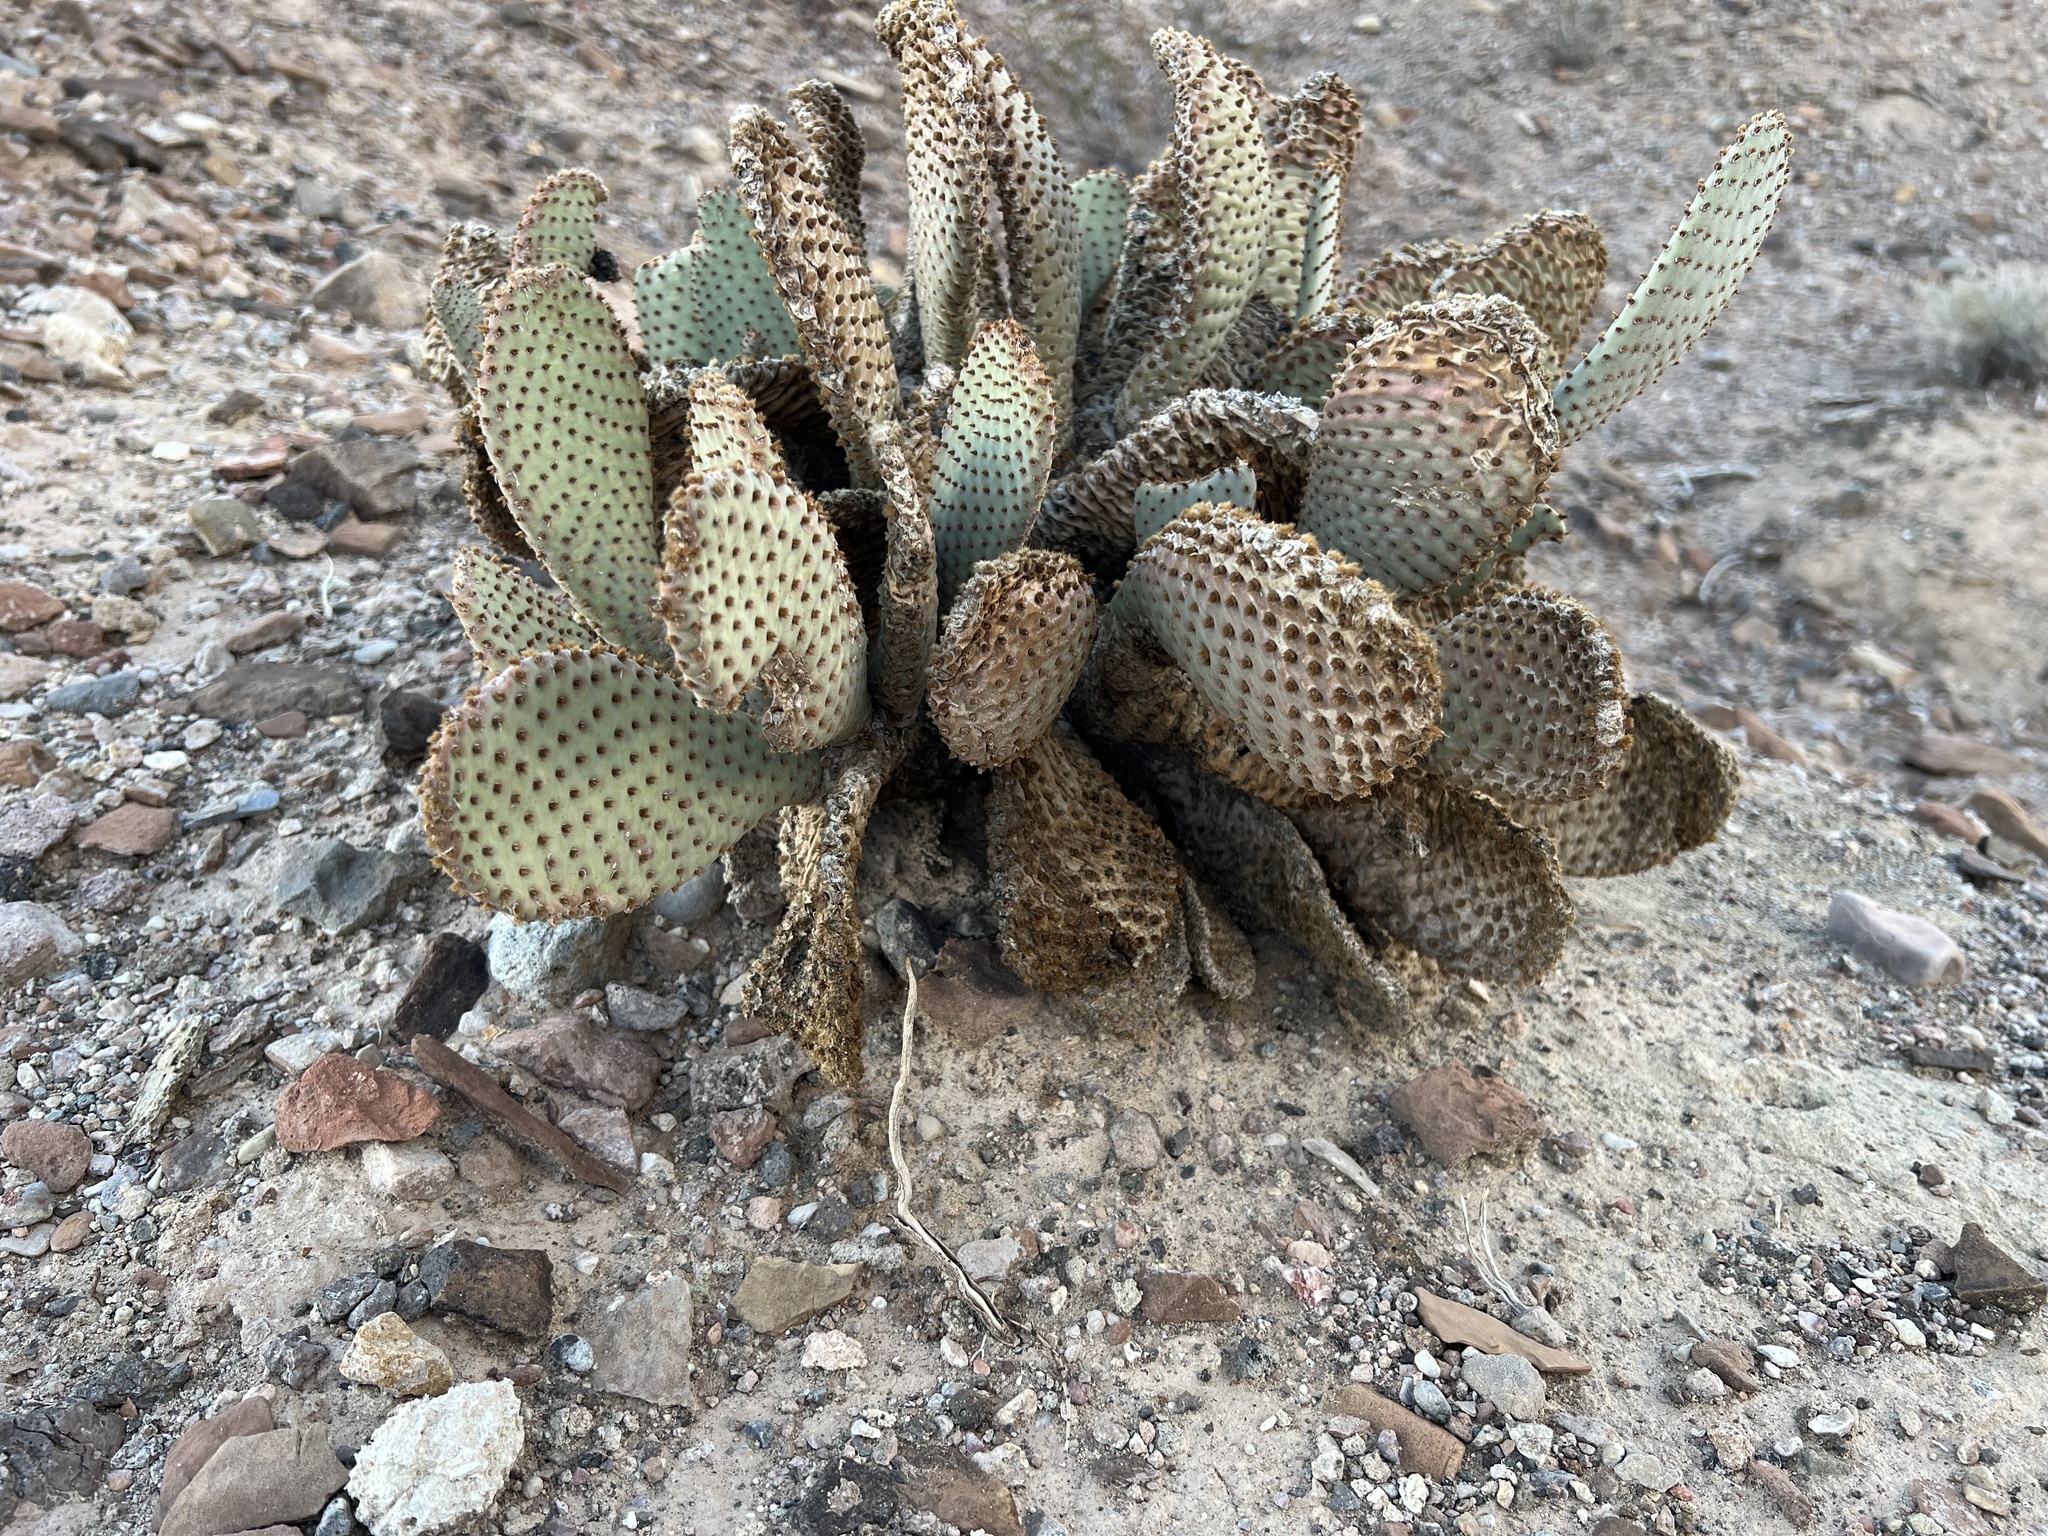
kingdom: Plantae
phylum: Tracheophyta
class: Magnoliopsida
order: Caryophyllales
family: Cactaceae
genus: Opuntia
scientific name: Opuntia basilaris
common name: Beavertail prickly-pear
